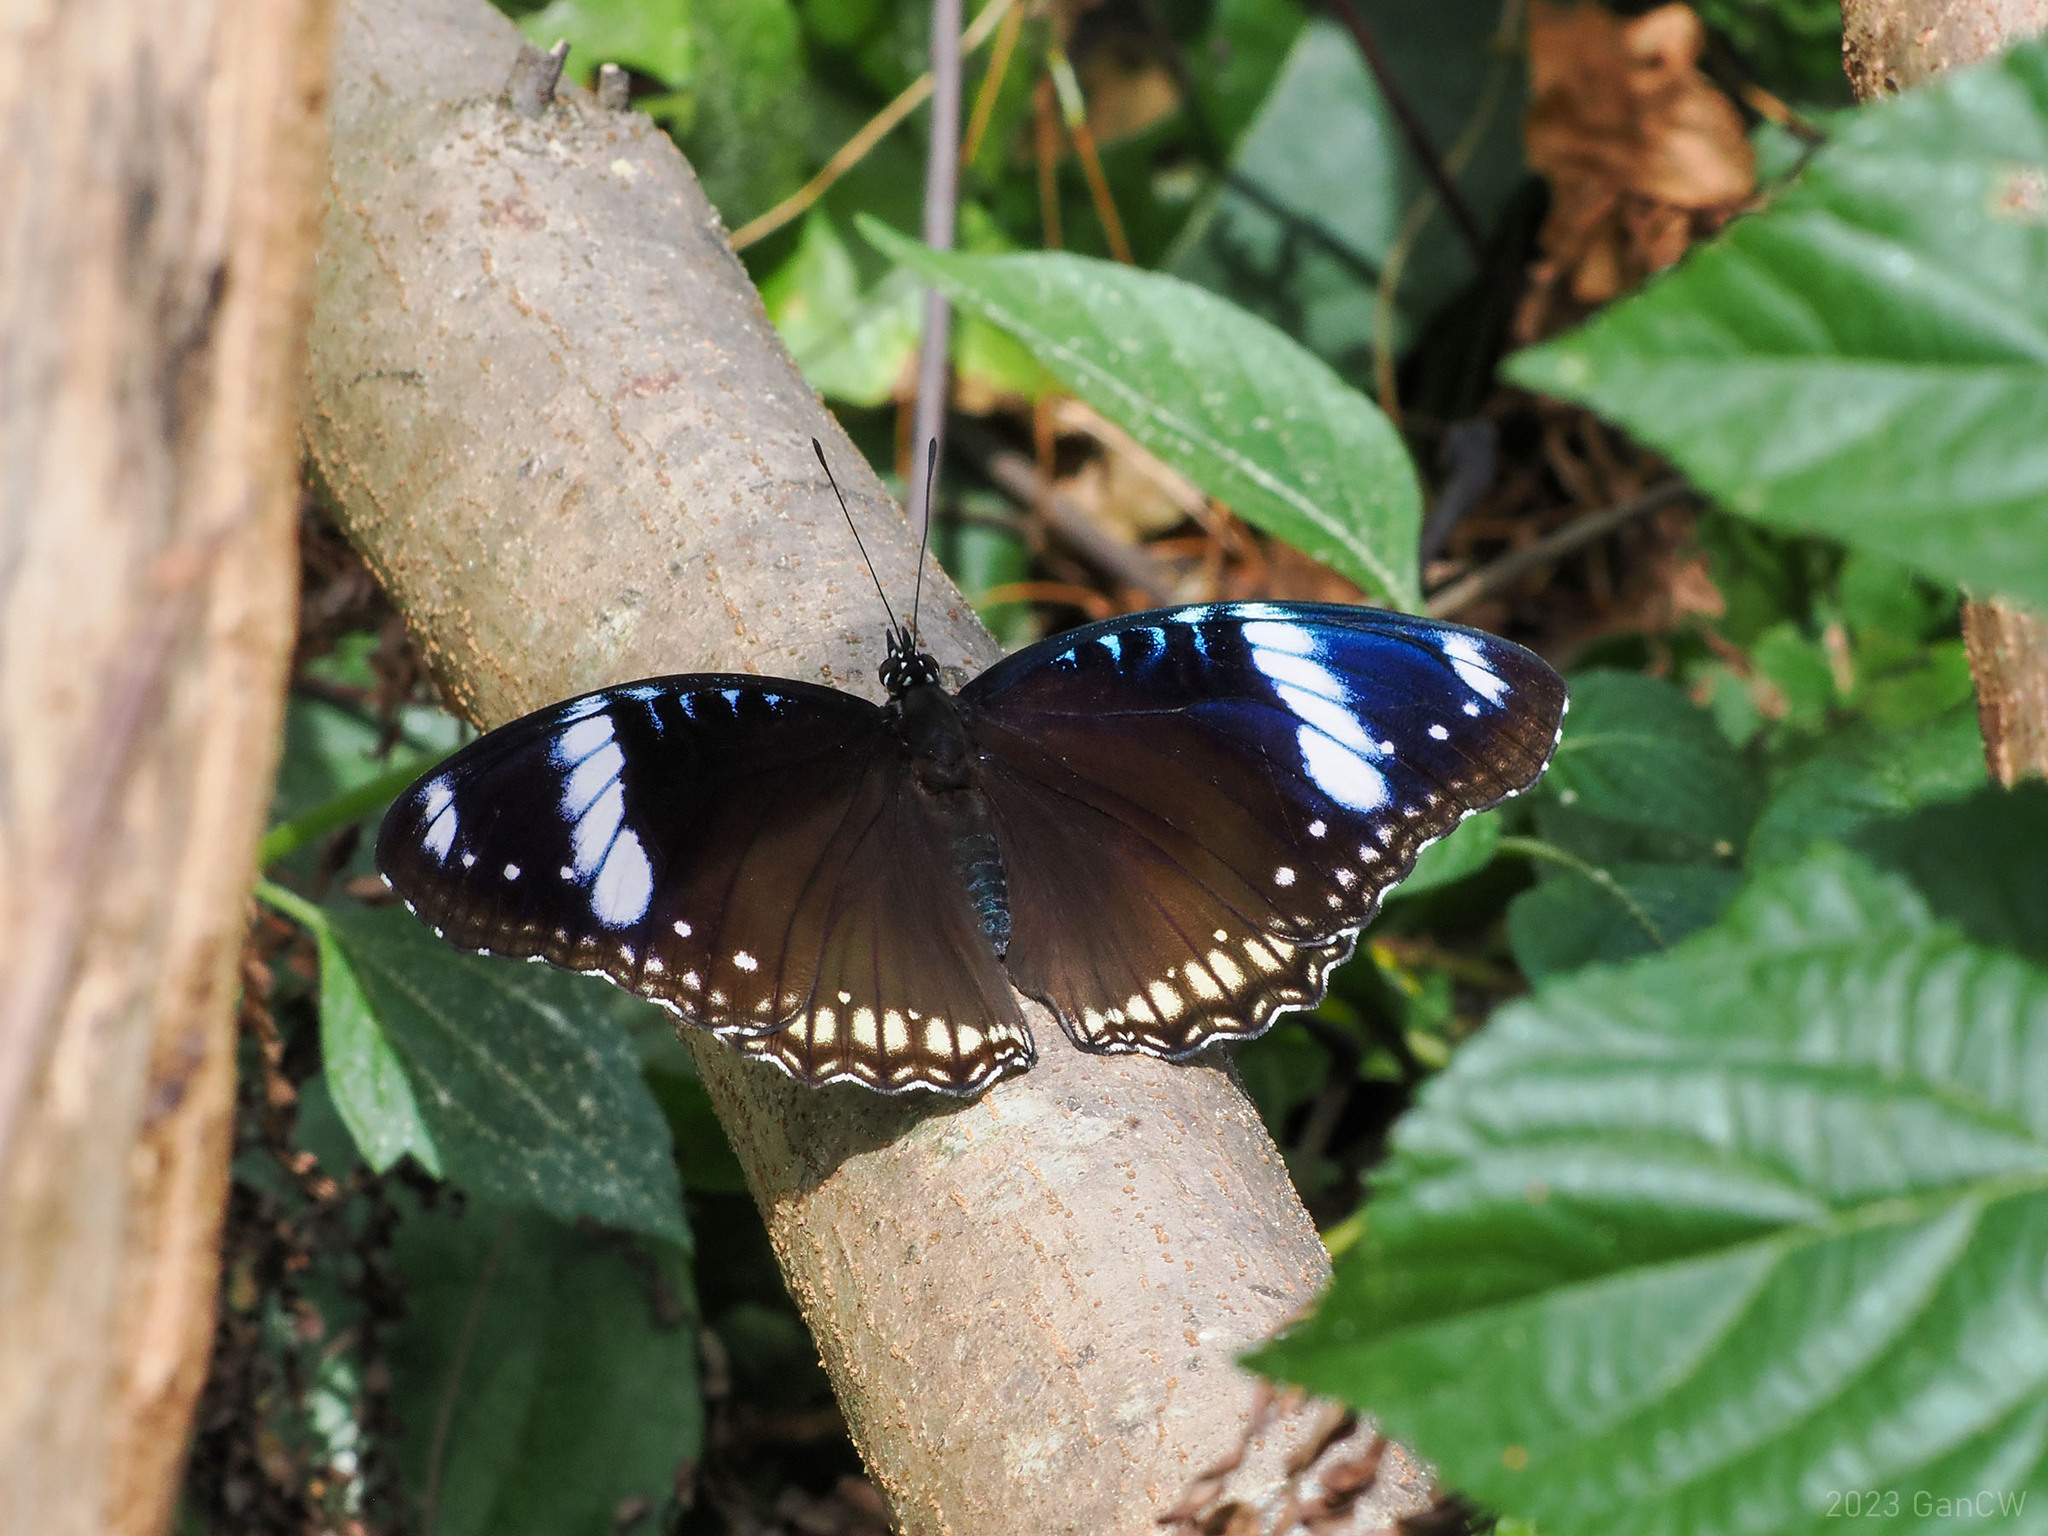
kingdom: Animalia
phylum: Arthropoda
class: Insecta
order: Lepidoptera
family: Nymphalidae
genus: Hypolimnas
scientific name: Hypolimnas bolina
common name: Great eggfly
